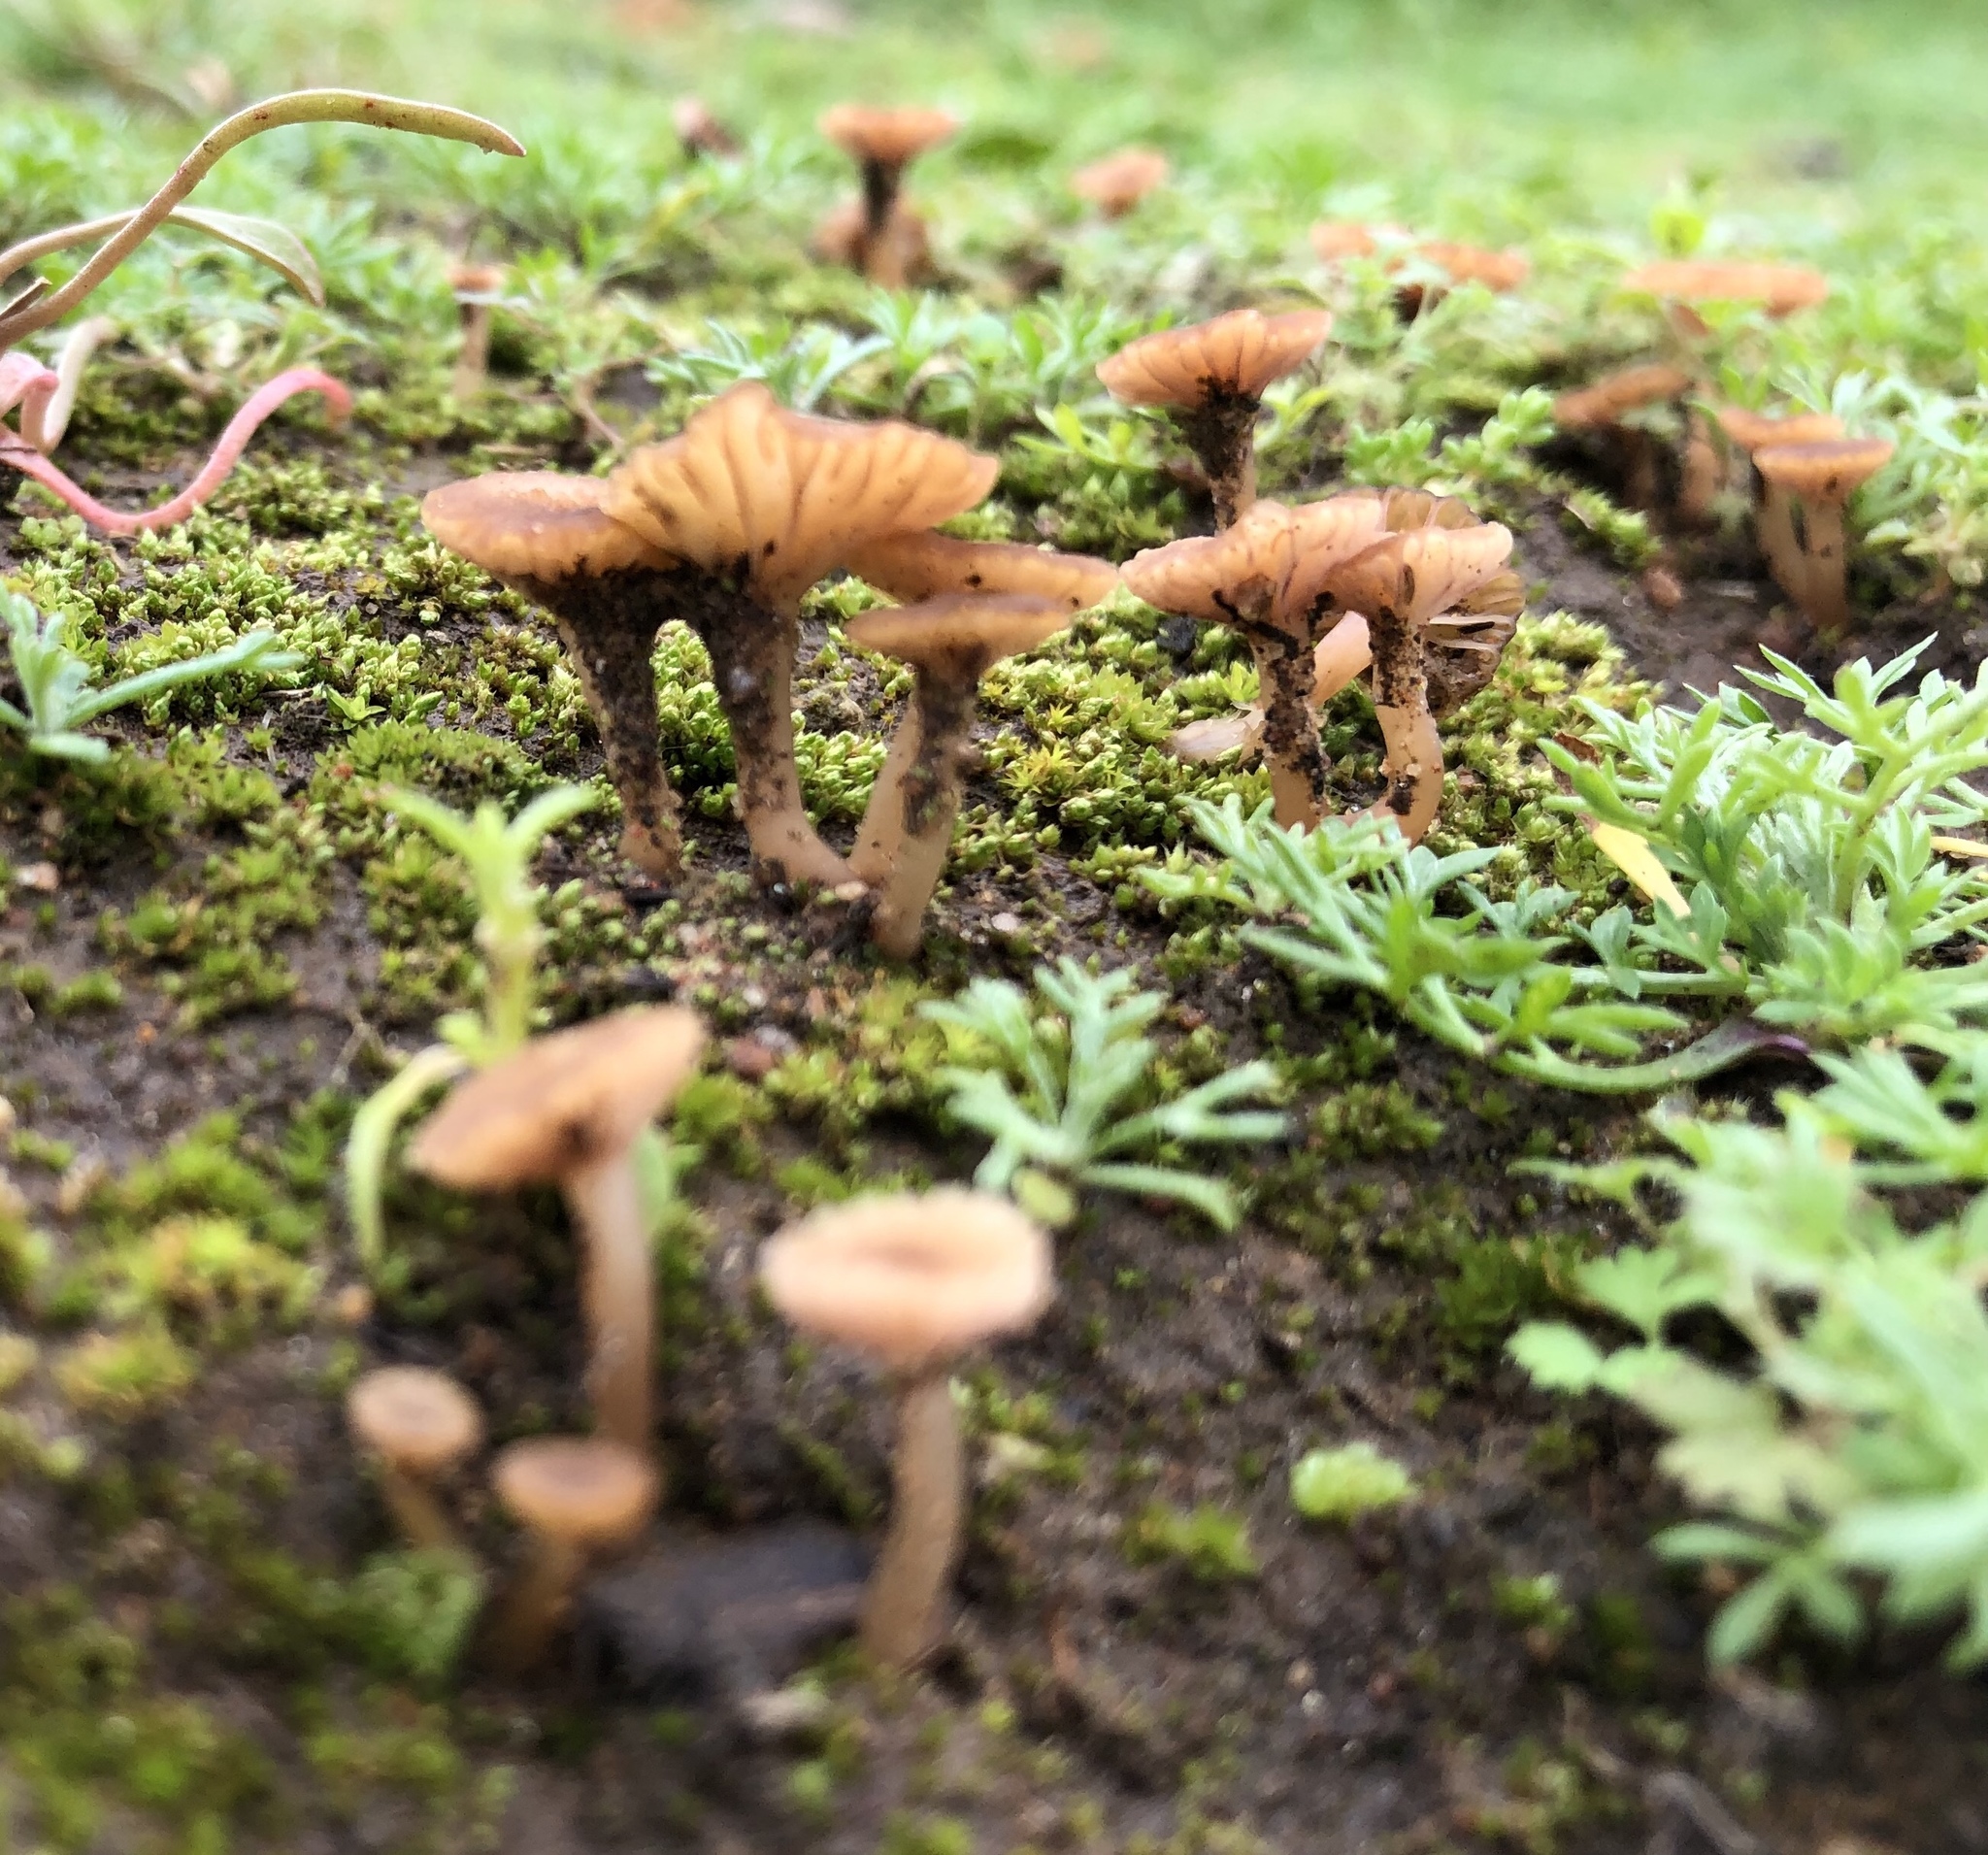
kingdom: Fungi
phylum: Basidiomycota
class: Agaricomycetes
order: Hymenochaetales
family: Rickenellaceae
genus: Contumyces
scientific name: Contumyces rosellus
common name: Rosy navel
